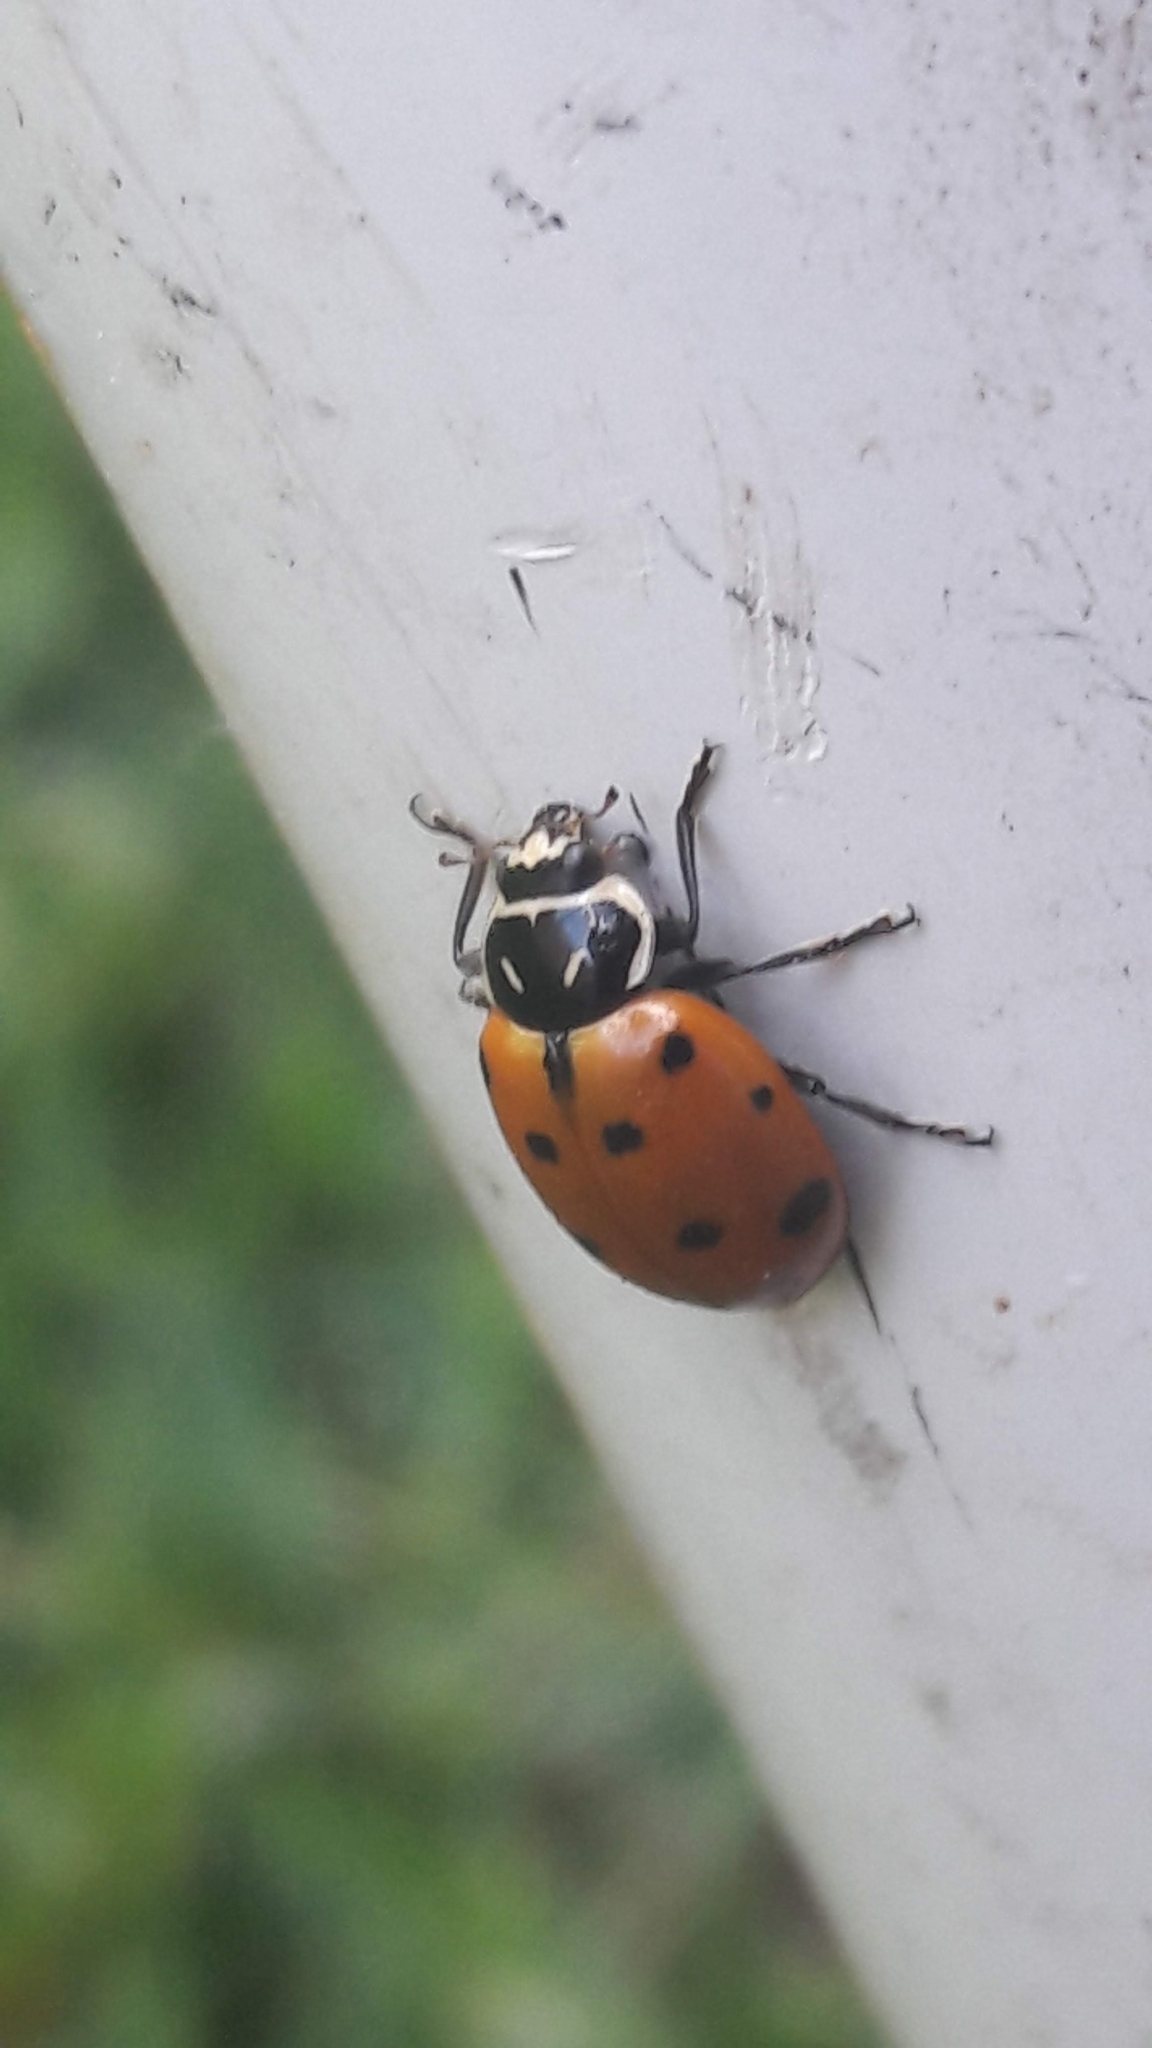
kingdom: Animalia
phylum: Arthropoda
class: Insecta
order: Coleoptera
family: Coccinellidae
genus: Hippodamia
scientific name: Hippodamia convergens
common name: Convergent lady beetle
